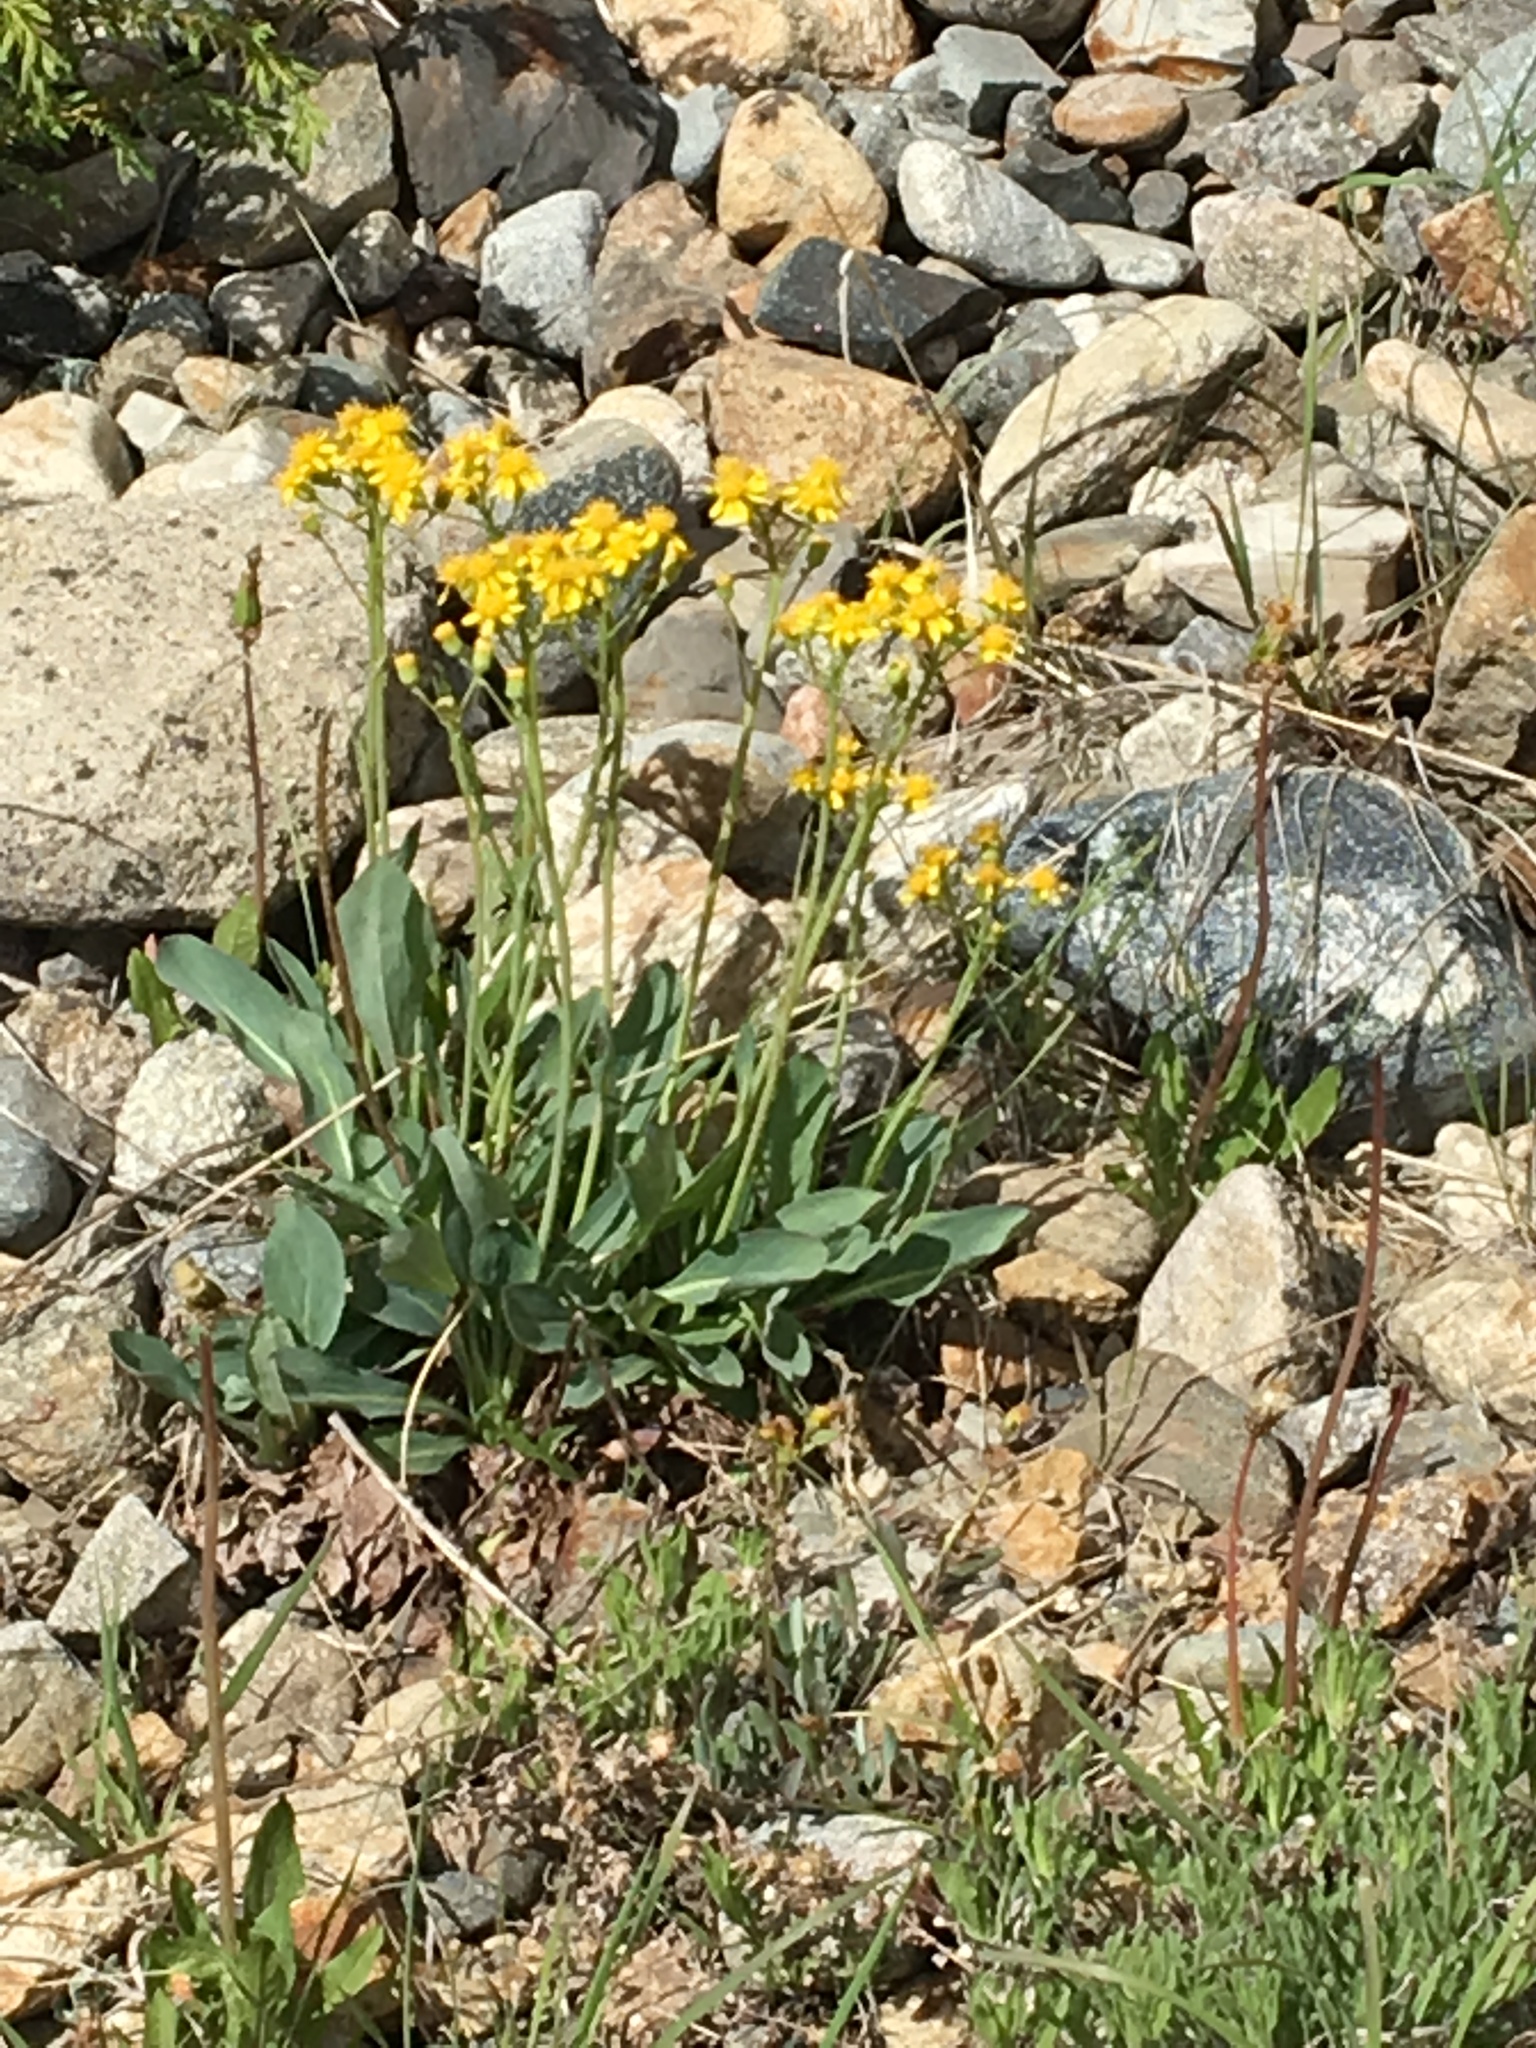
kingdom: Plantae
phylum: Tracheophyta
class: Magnoliopsida
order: Asterales
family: Asteraceae
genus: Senecio
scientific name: Senecio integerrimus
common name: Gaugeplant
